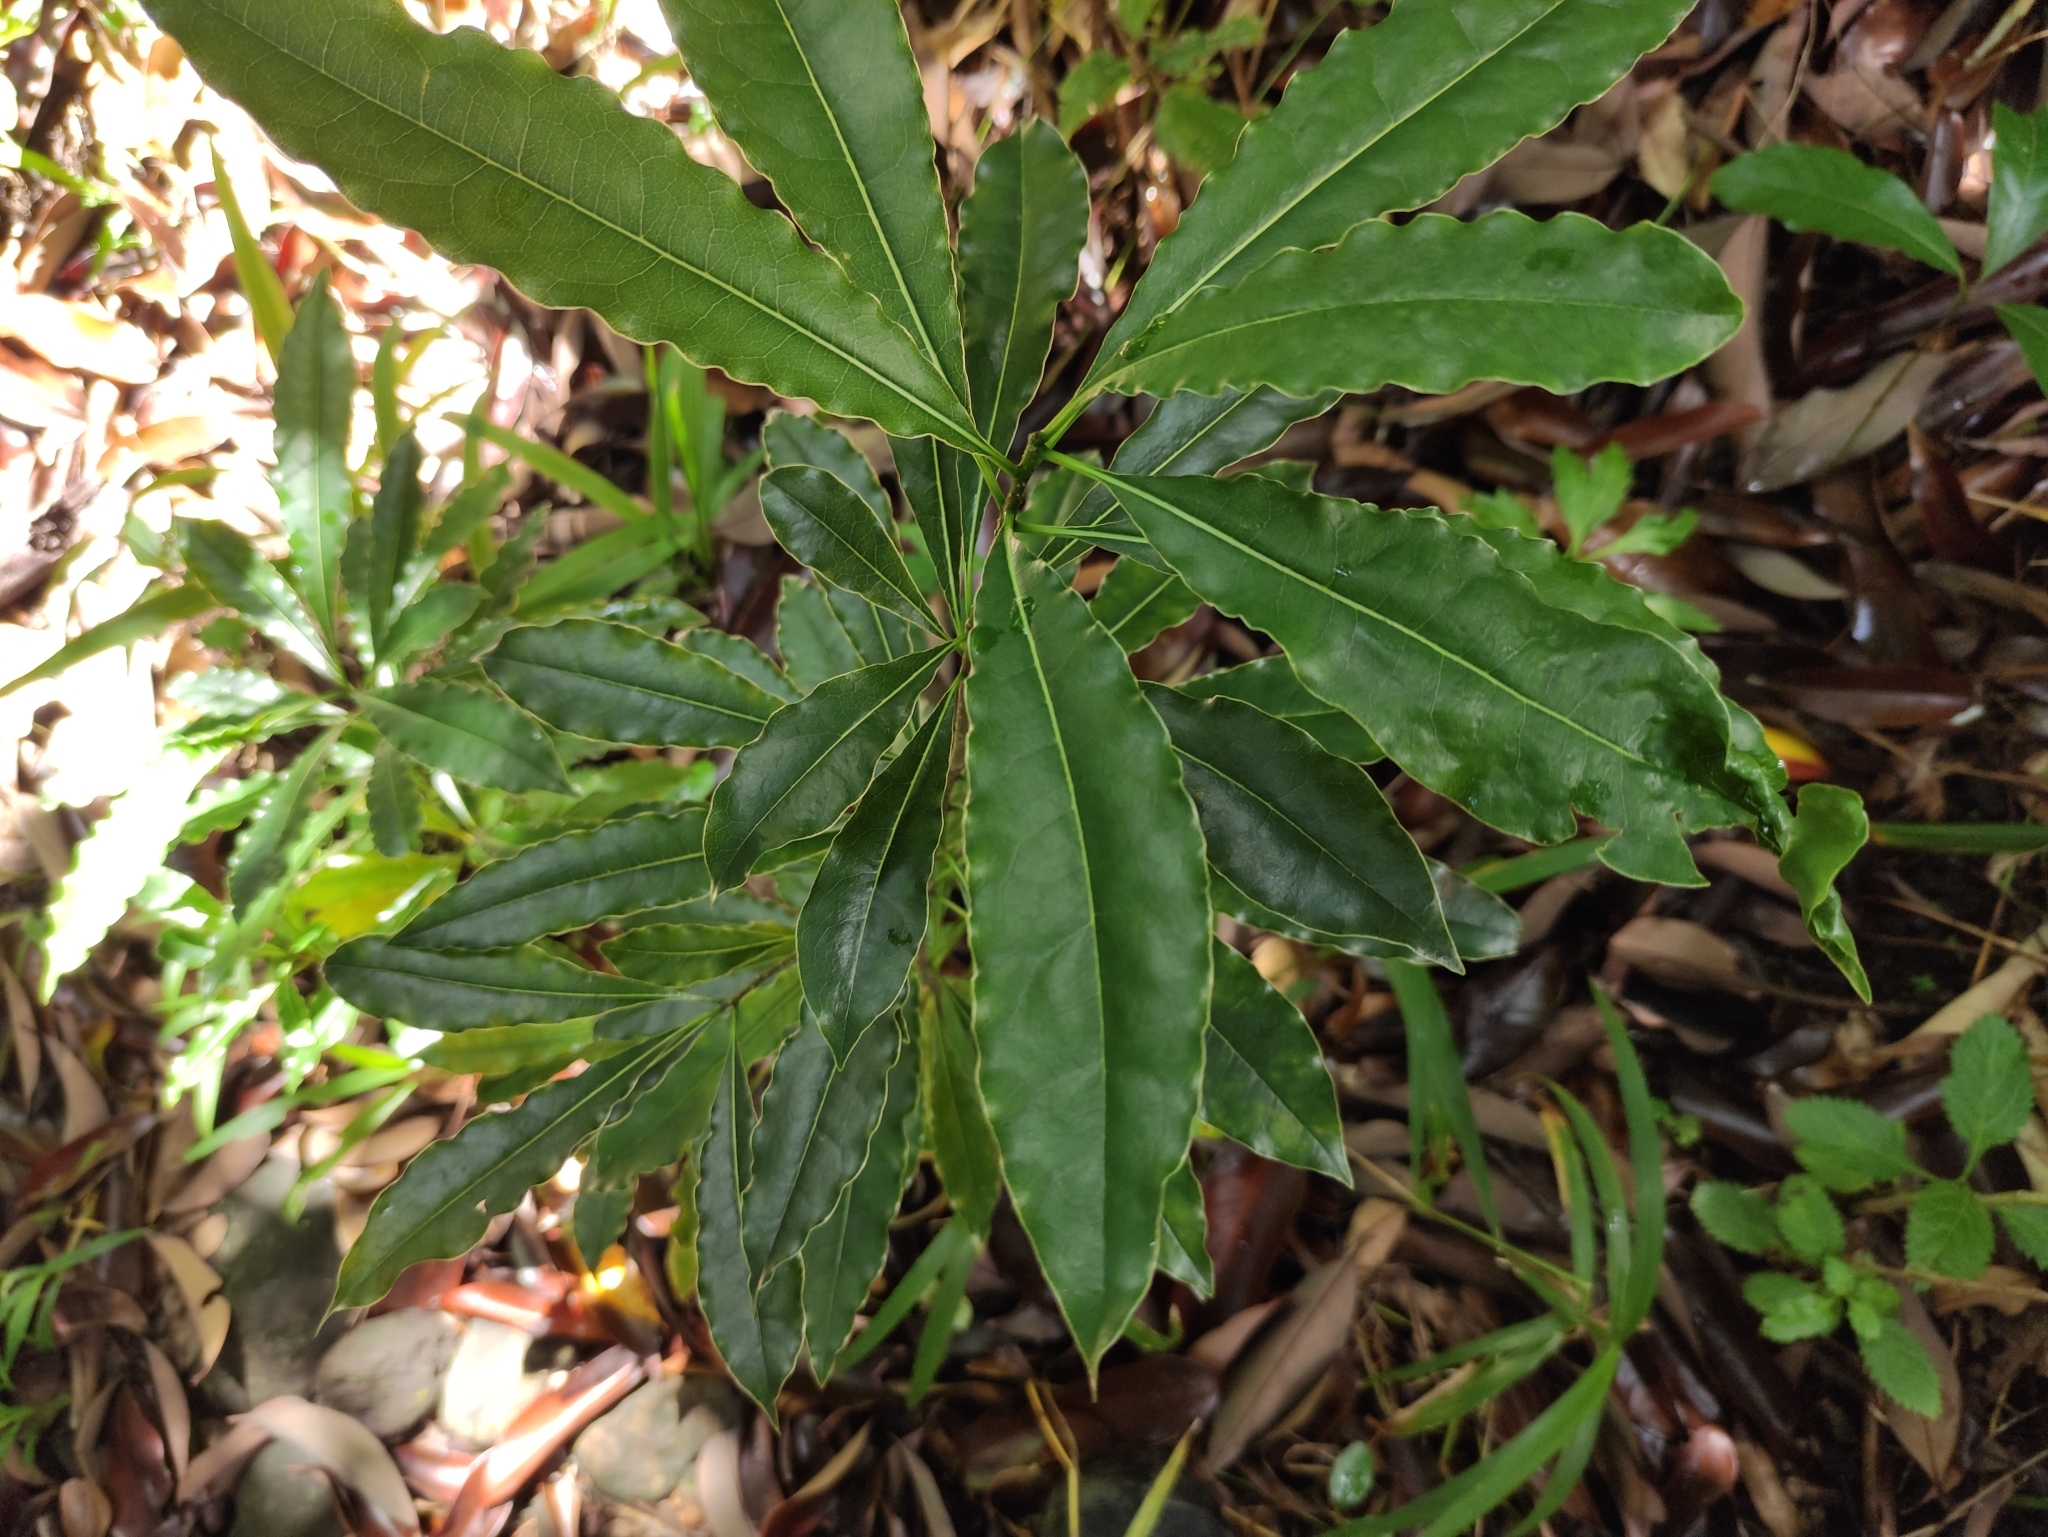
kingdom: Plantae
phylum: Tracheophyta
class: Magnoliopsida
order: Apiales
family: Pittosporaceae
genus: Pittosporum
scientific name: Pittosporum senacia
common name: Cheesewood
